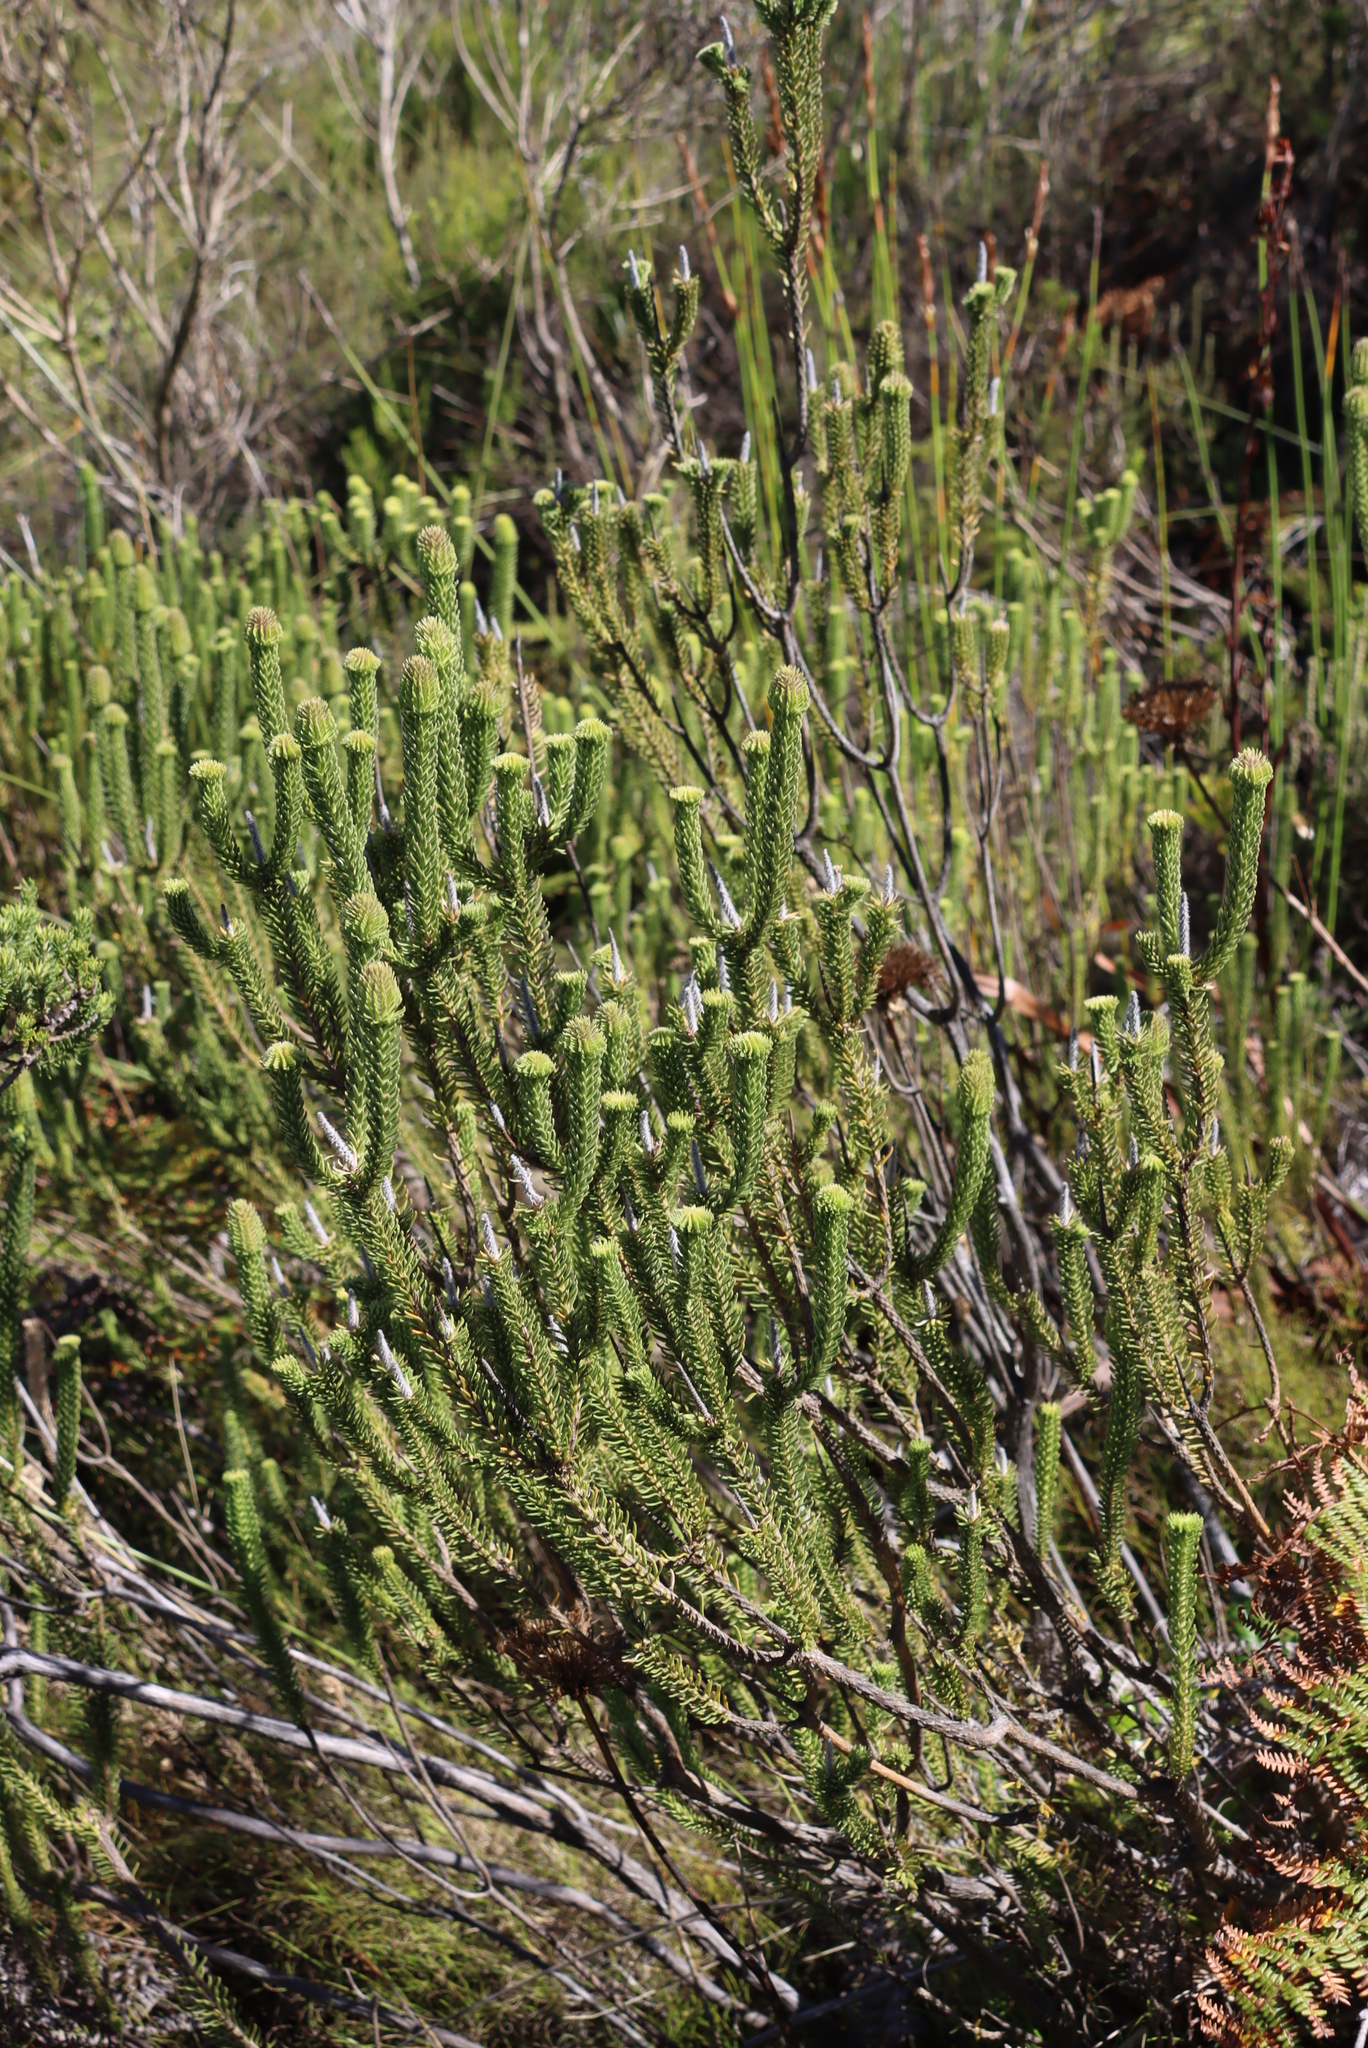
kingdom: Plantae
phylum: Tracheophyta
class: Magnoliopsida
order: Lamiales
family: Stilbaceae
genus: Stilbe
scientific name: Stilbe vestita
